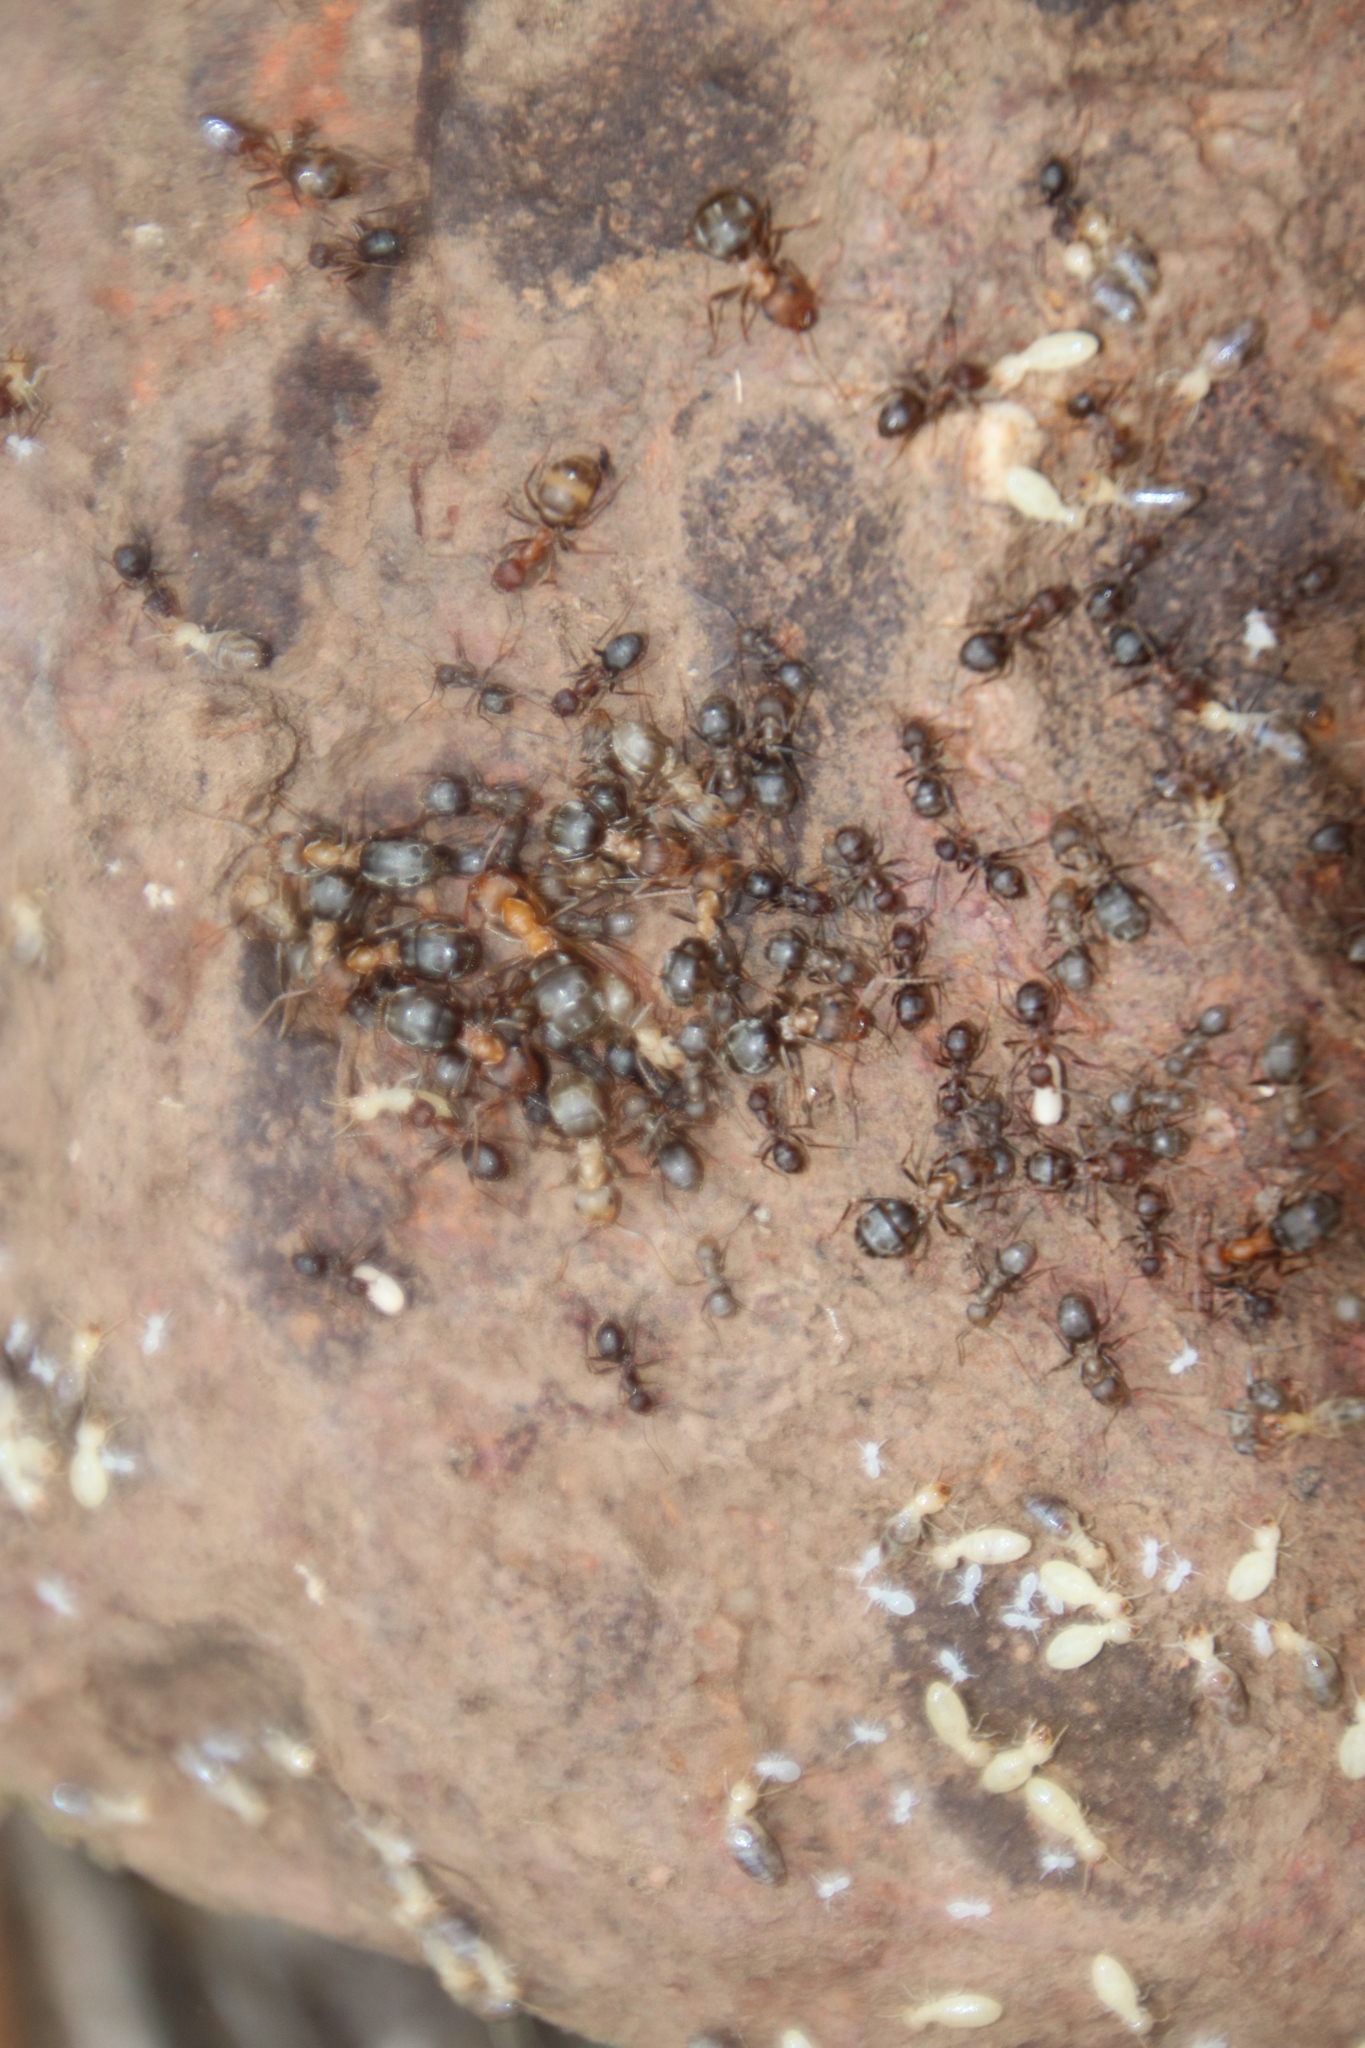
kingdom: Animalia
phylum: Arthropoda
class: Insecta
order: Hymenoptera
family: Formicidae
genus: Anoplolepis
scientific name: Anoplolepis steingroeveri
